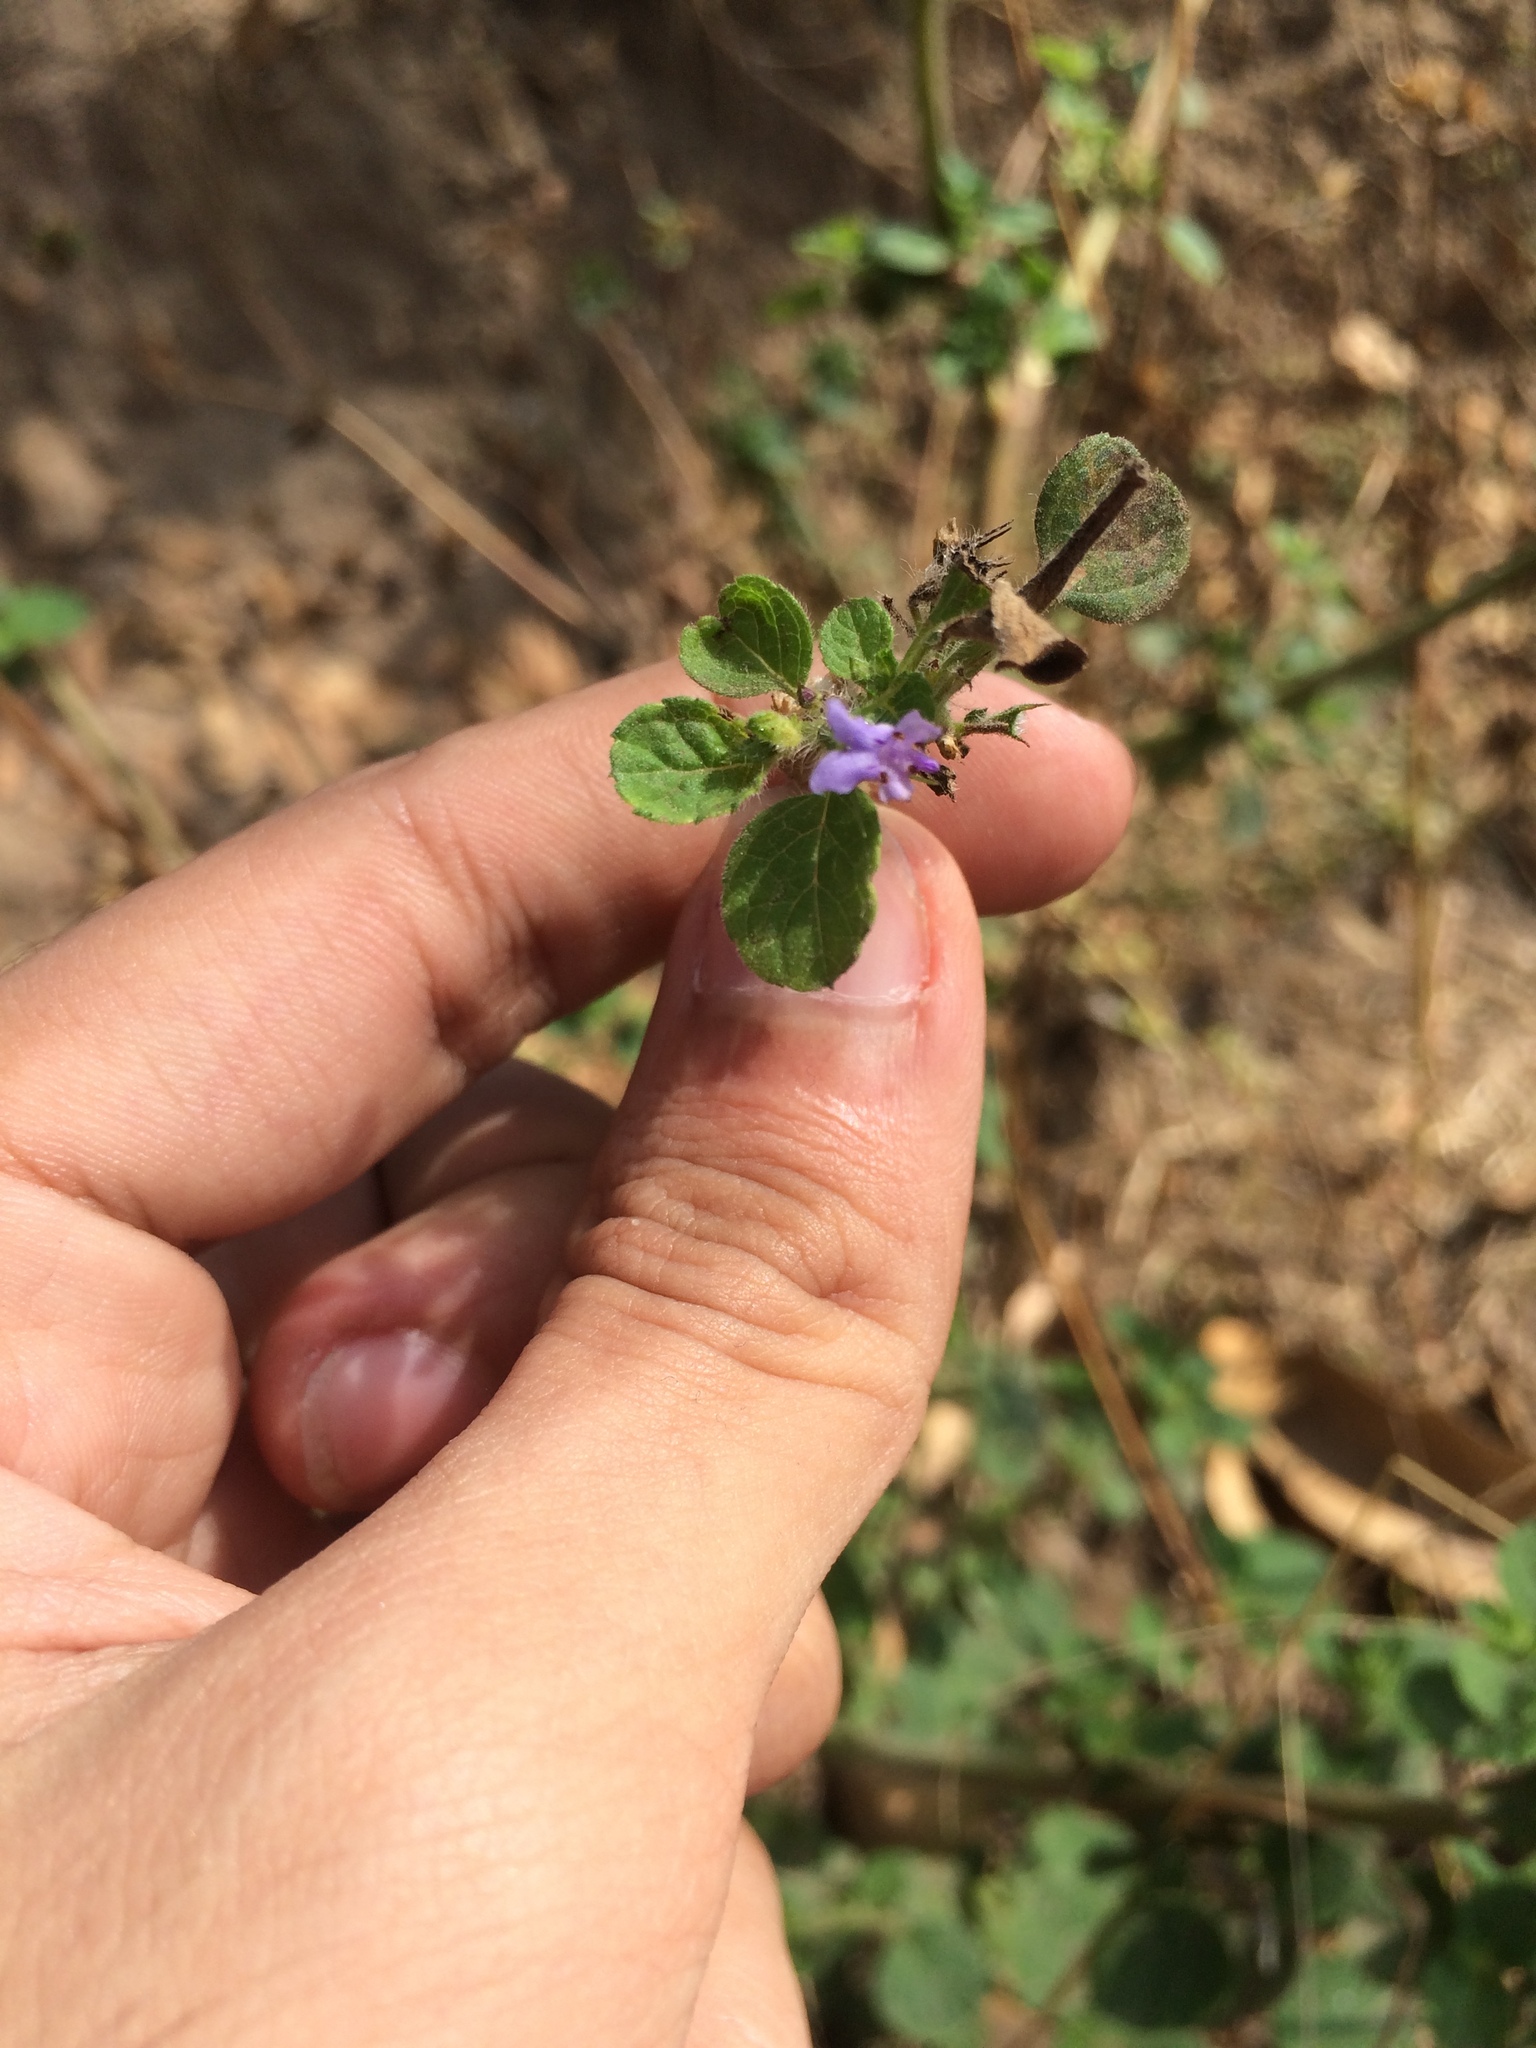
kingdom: Plantae
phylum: Tracheophyta
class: Magnoliopsida
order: Lamiales
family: Lamiaceae
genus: Mesosphaerum
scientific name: Mesosphaerum suaveolens
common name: Pignut
